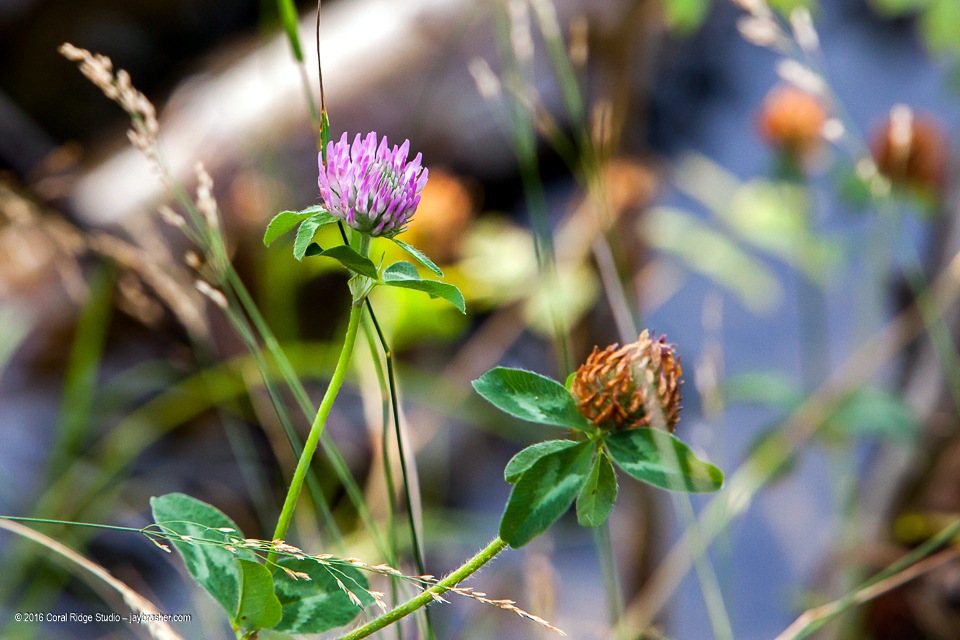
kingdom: Plantae
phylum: Tracheophyta
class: Magnoliopsida
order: Fabales
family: Fabaceae
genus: Trifolium
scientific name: Trifolium pratense
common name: Red clover
